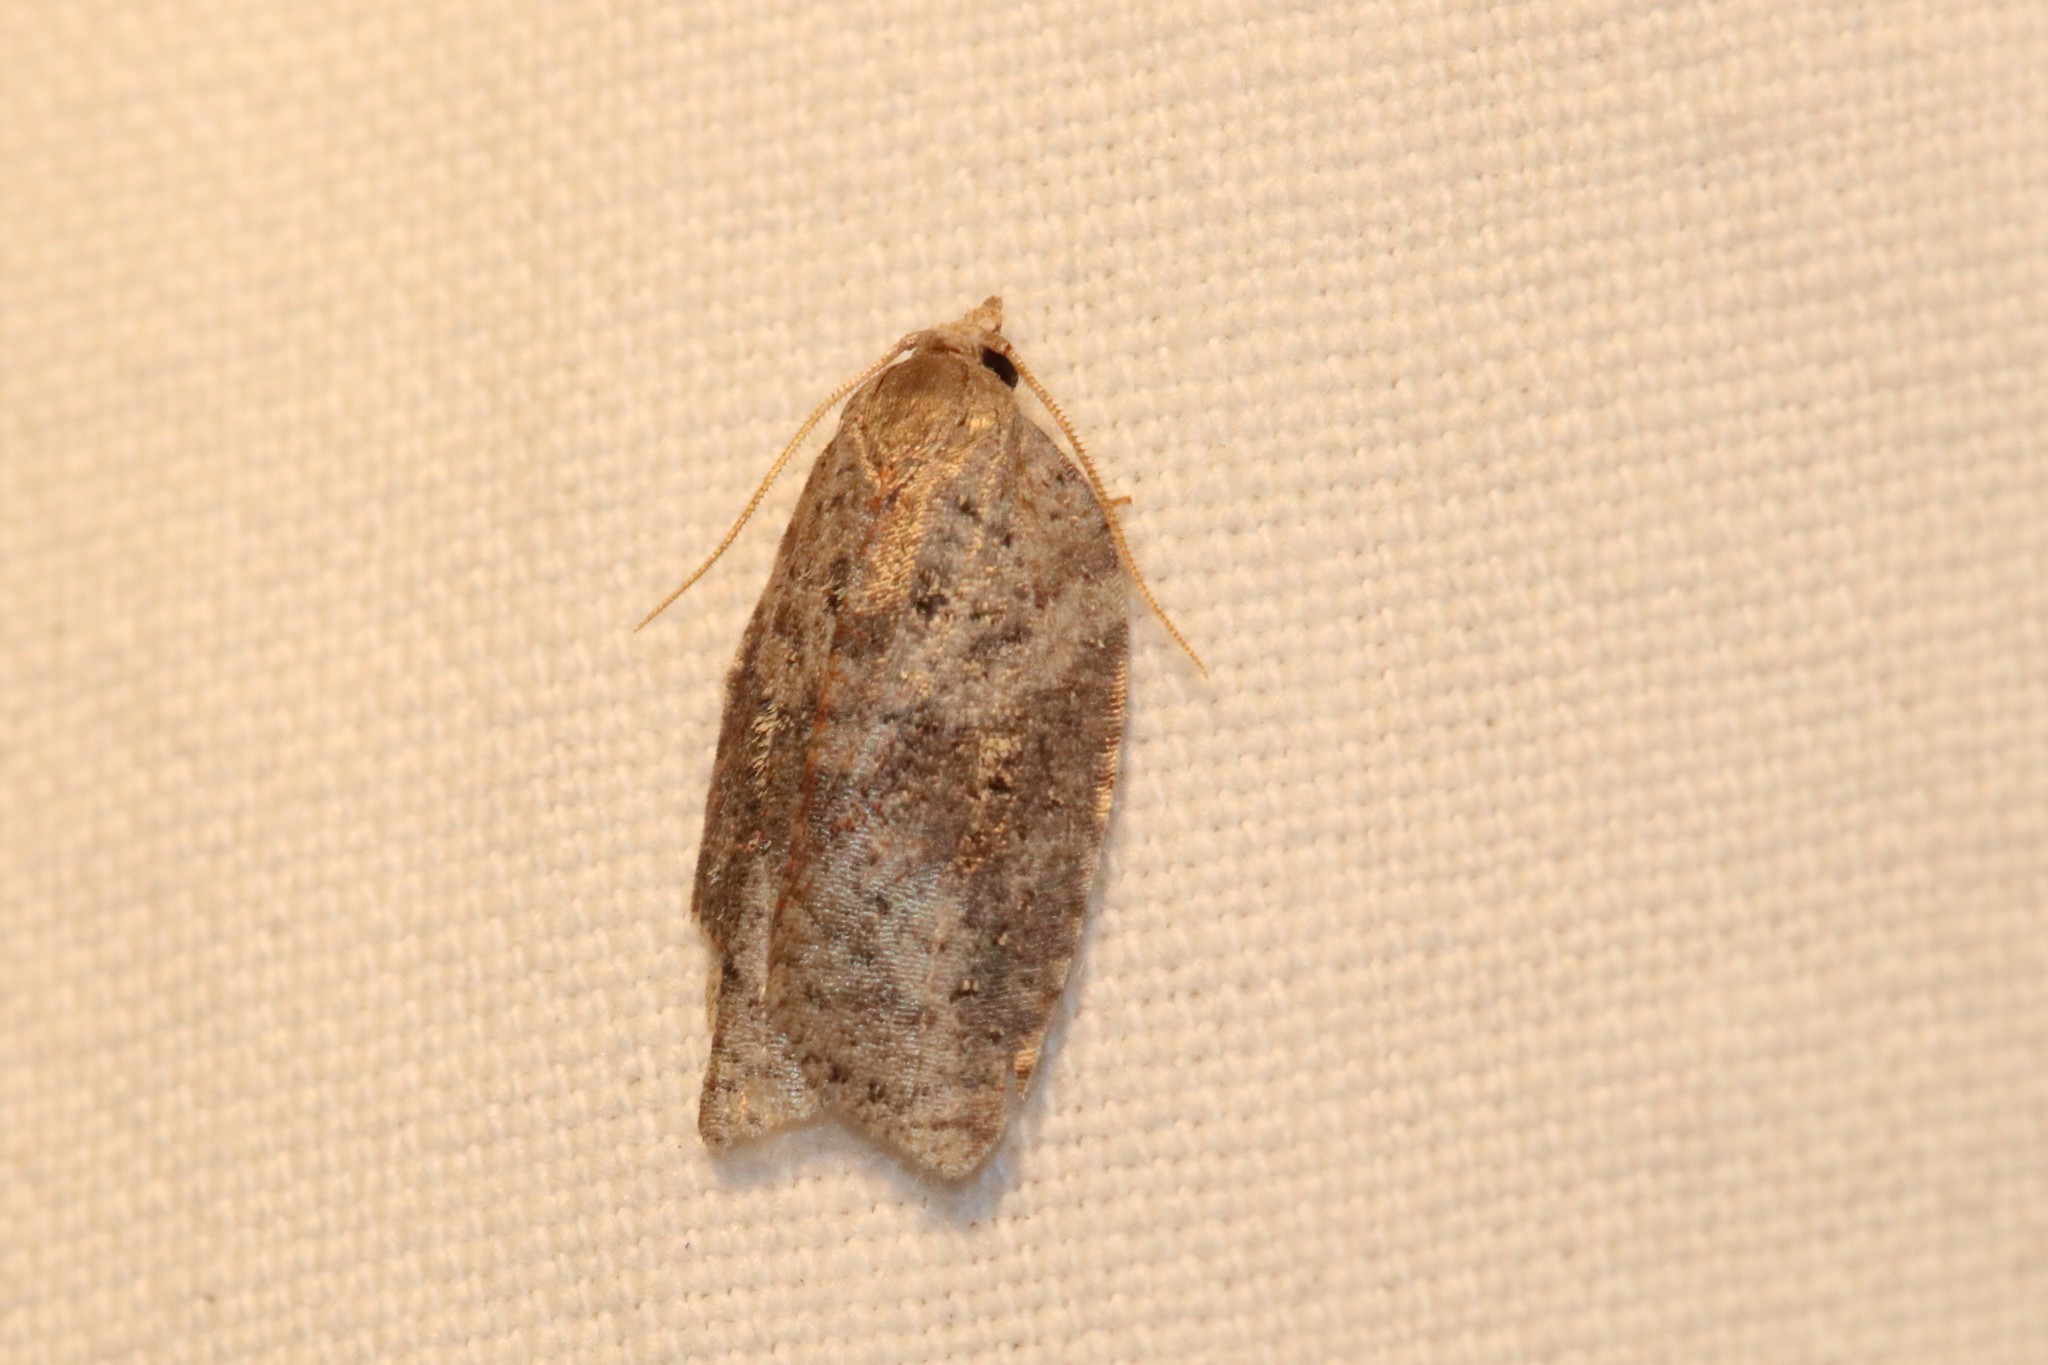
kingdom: Animalia
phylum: Arthropoda
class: Insecta
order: Lepidoptera
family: Tortricidae
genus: Amorbia
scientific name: Amorbia humerosana
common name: White-lined leafroller moth
